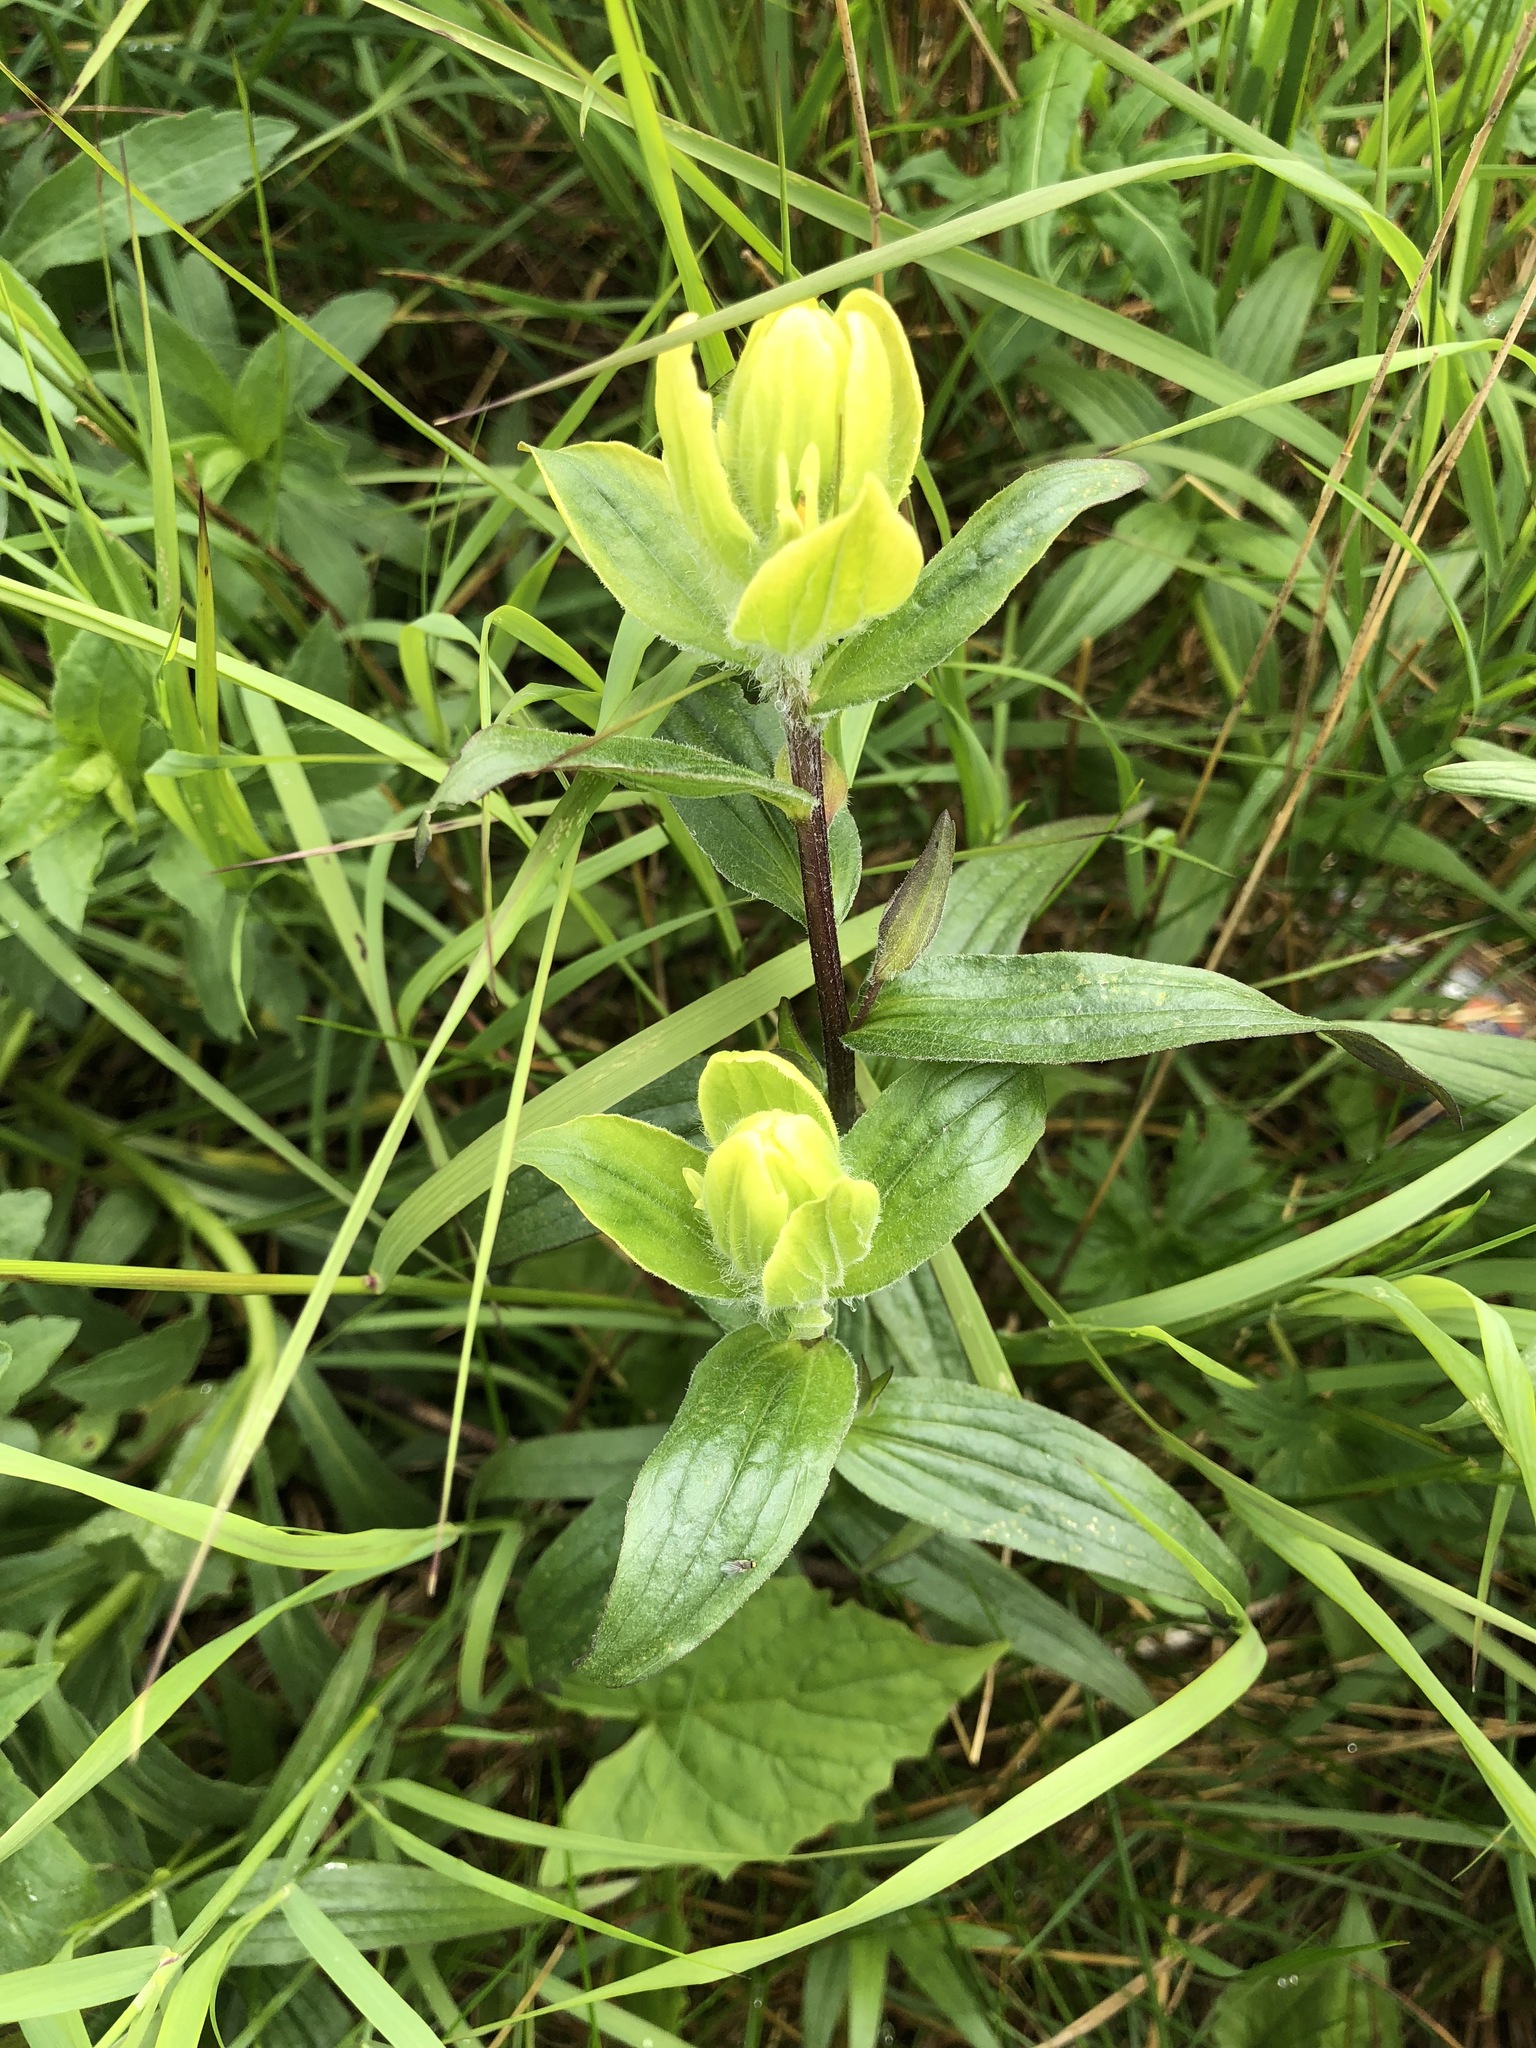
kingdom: Plantae
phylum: Tracheophyta
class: Magnoliopsida
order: Lamiales
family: Orobanchaceae
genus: Castilleja
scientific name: Castilleja unalaschcensis
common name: Unalaska paintbrush
